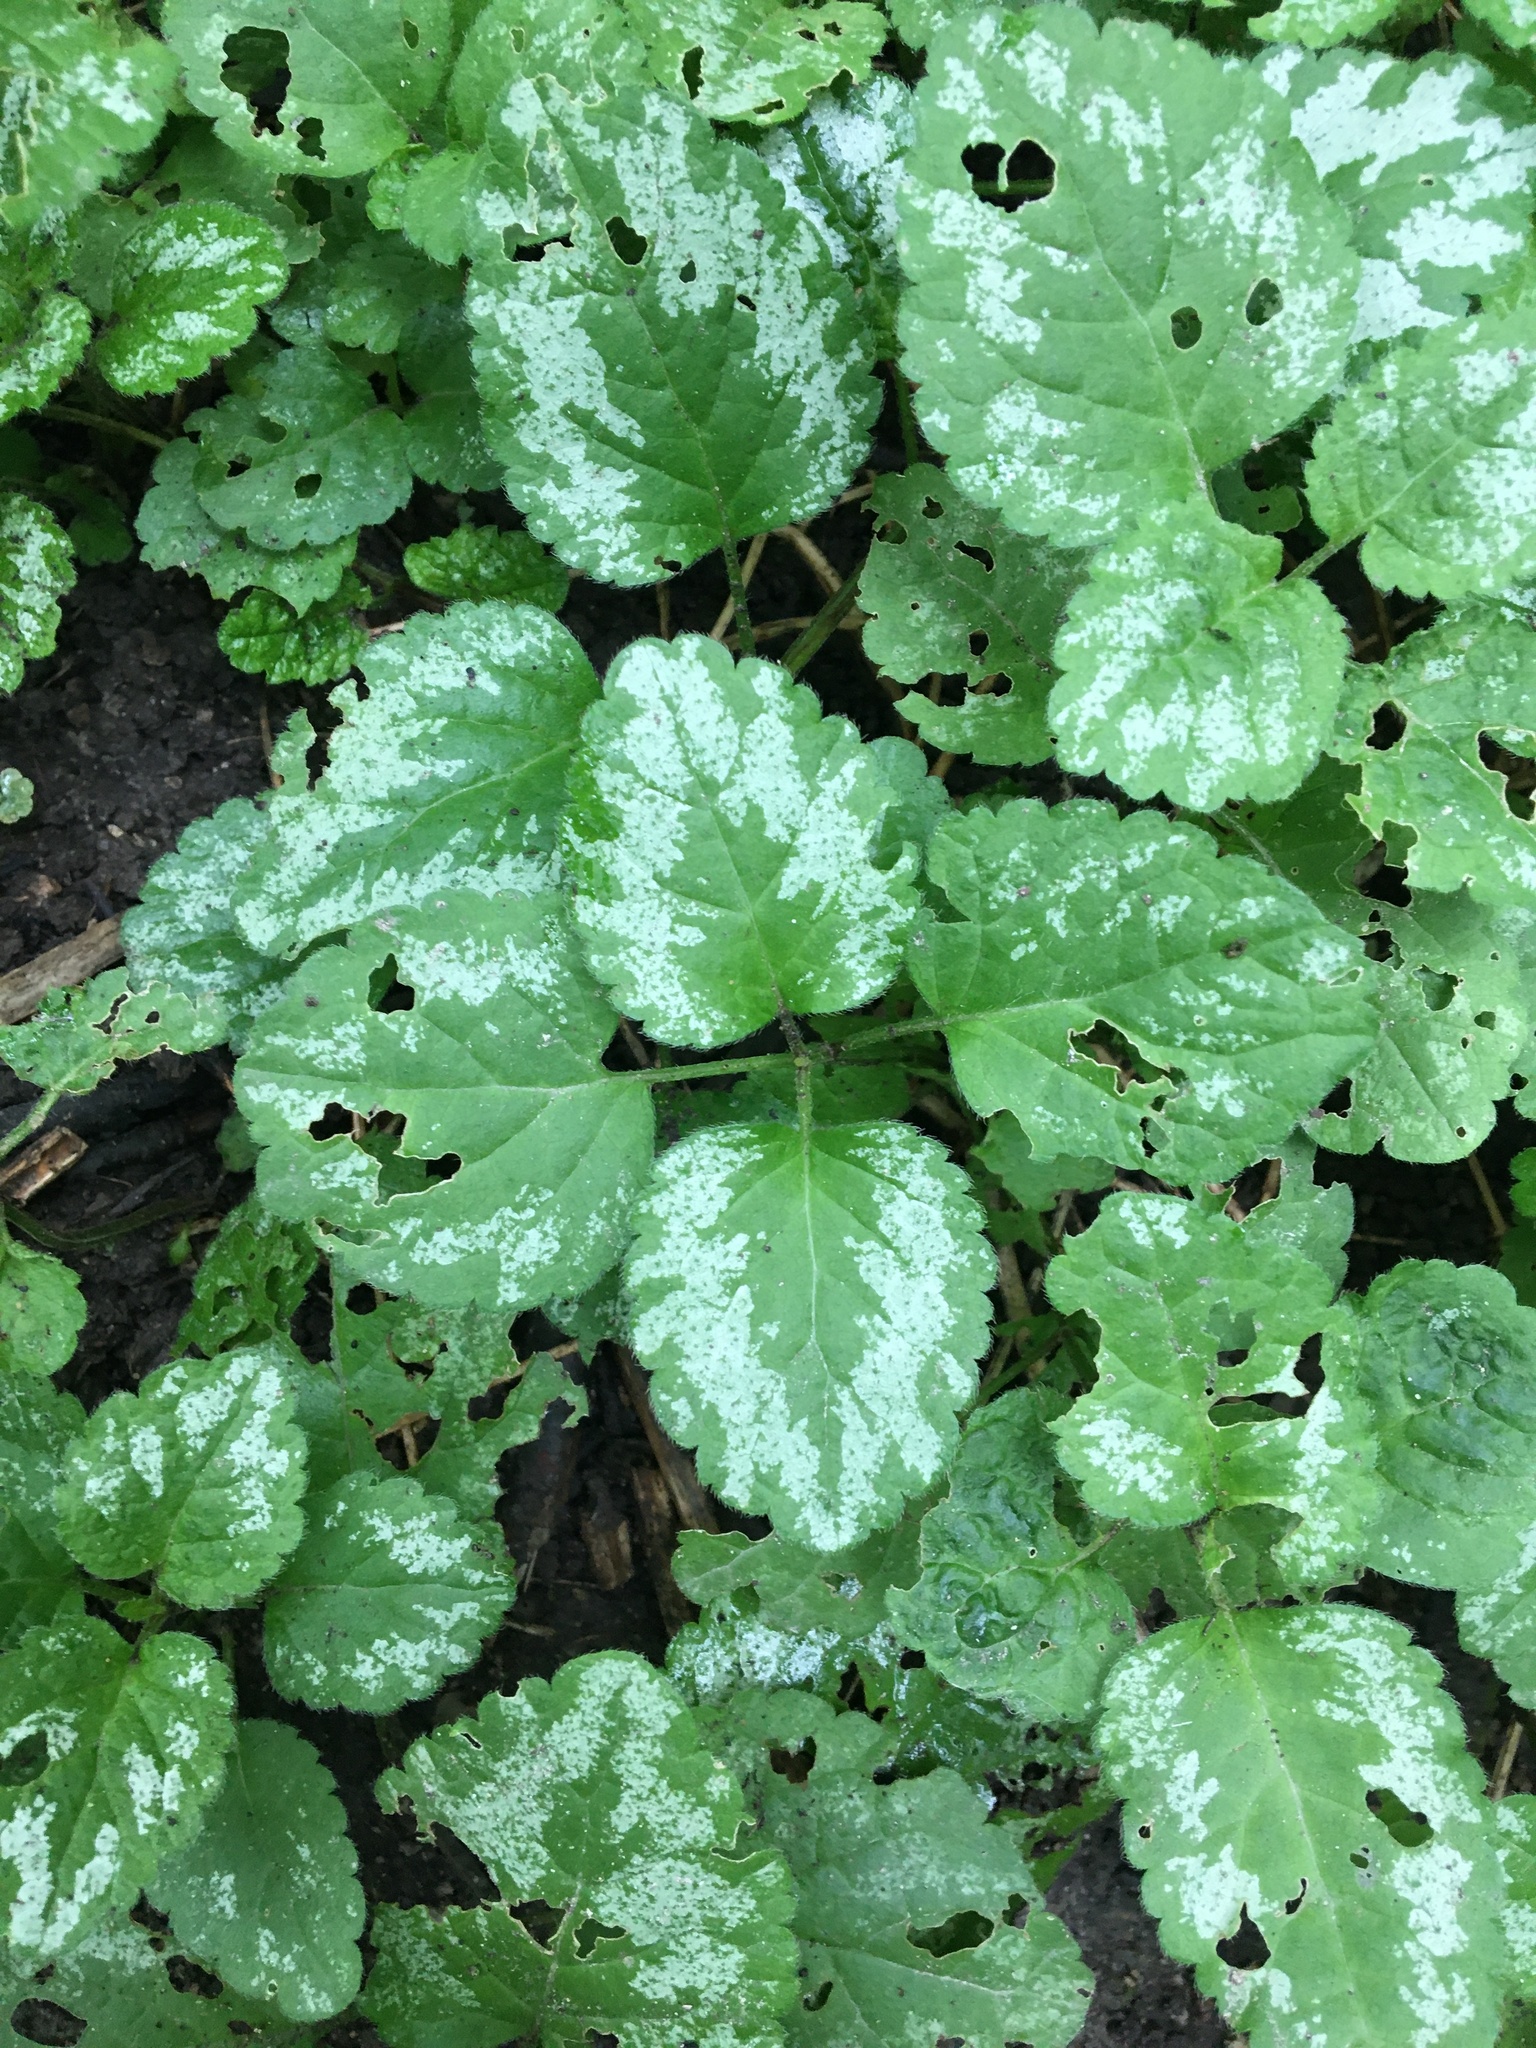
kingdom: Plantae
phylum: Tracheophyta
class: Magnoliopsida
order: Lamiales
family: Lamiaceae
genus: Lamium
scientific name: Lamium galeobdolon
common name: Yellow archangel
